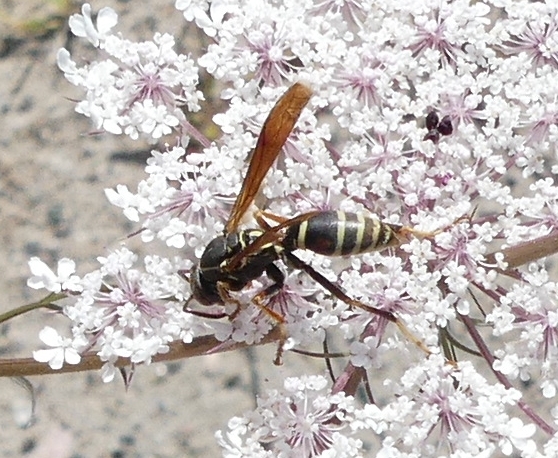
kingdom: Animalia
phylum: Arthropoda
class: Insecta
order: Hymenoptera
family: Eumenidae
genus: Polistes
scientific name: Polistes fuscatus
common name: Dark paper wasp
